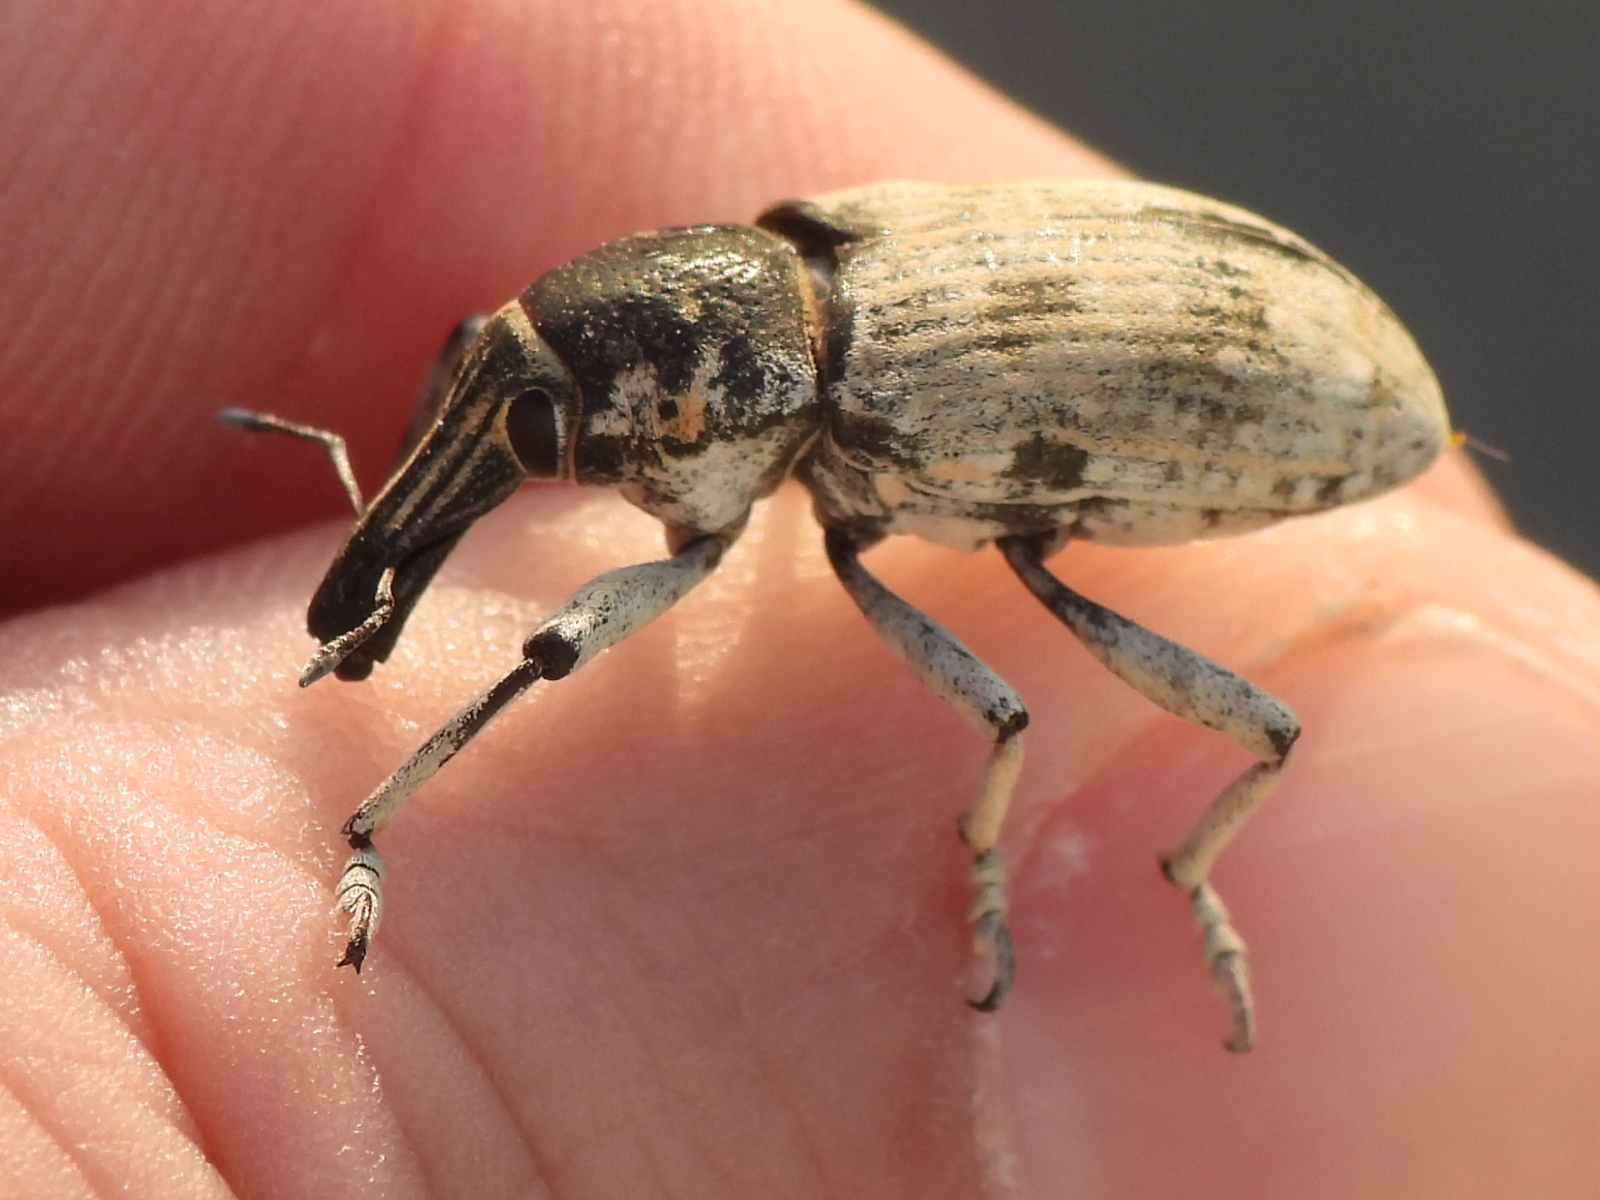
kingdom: Animalia
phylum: Arthropoda
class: Insecta
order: Coleoptera
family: Curculionidae
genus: Ammocleonus
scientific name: Ammocleonus hieroglyphicus
